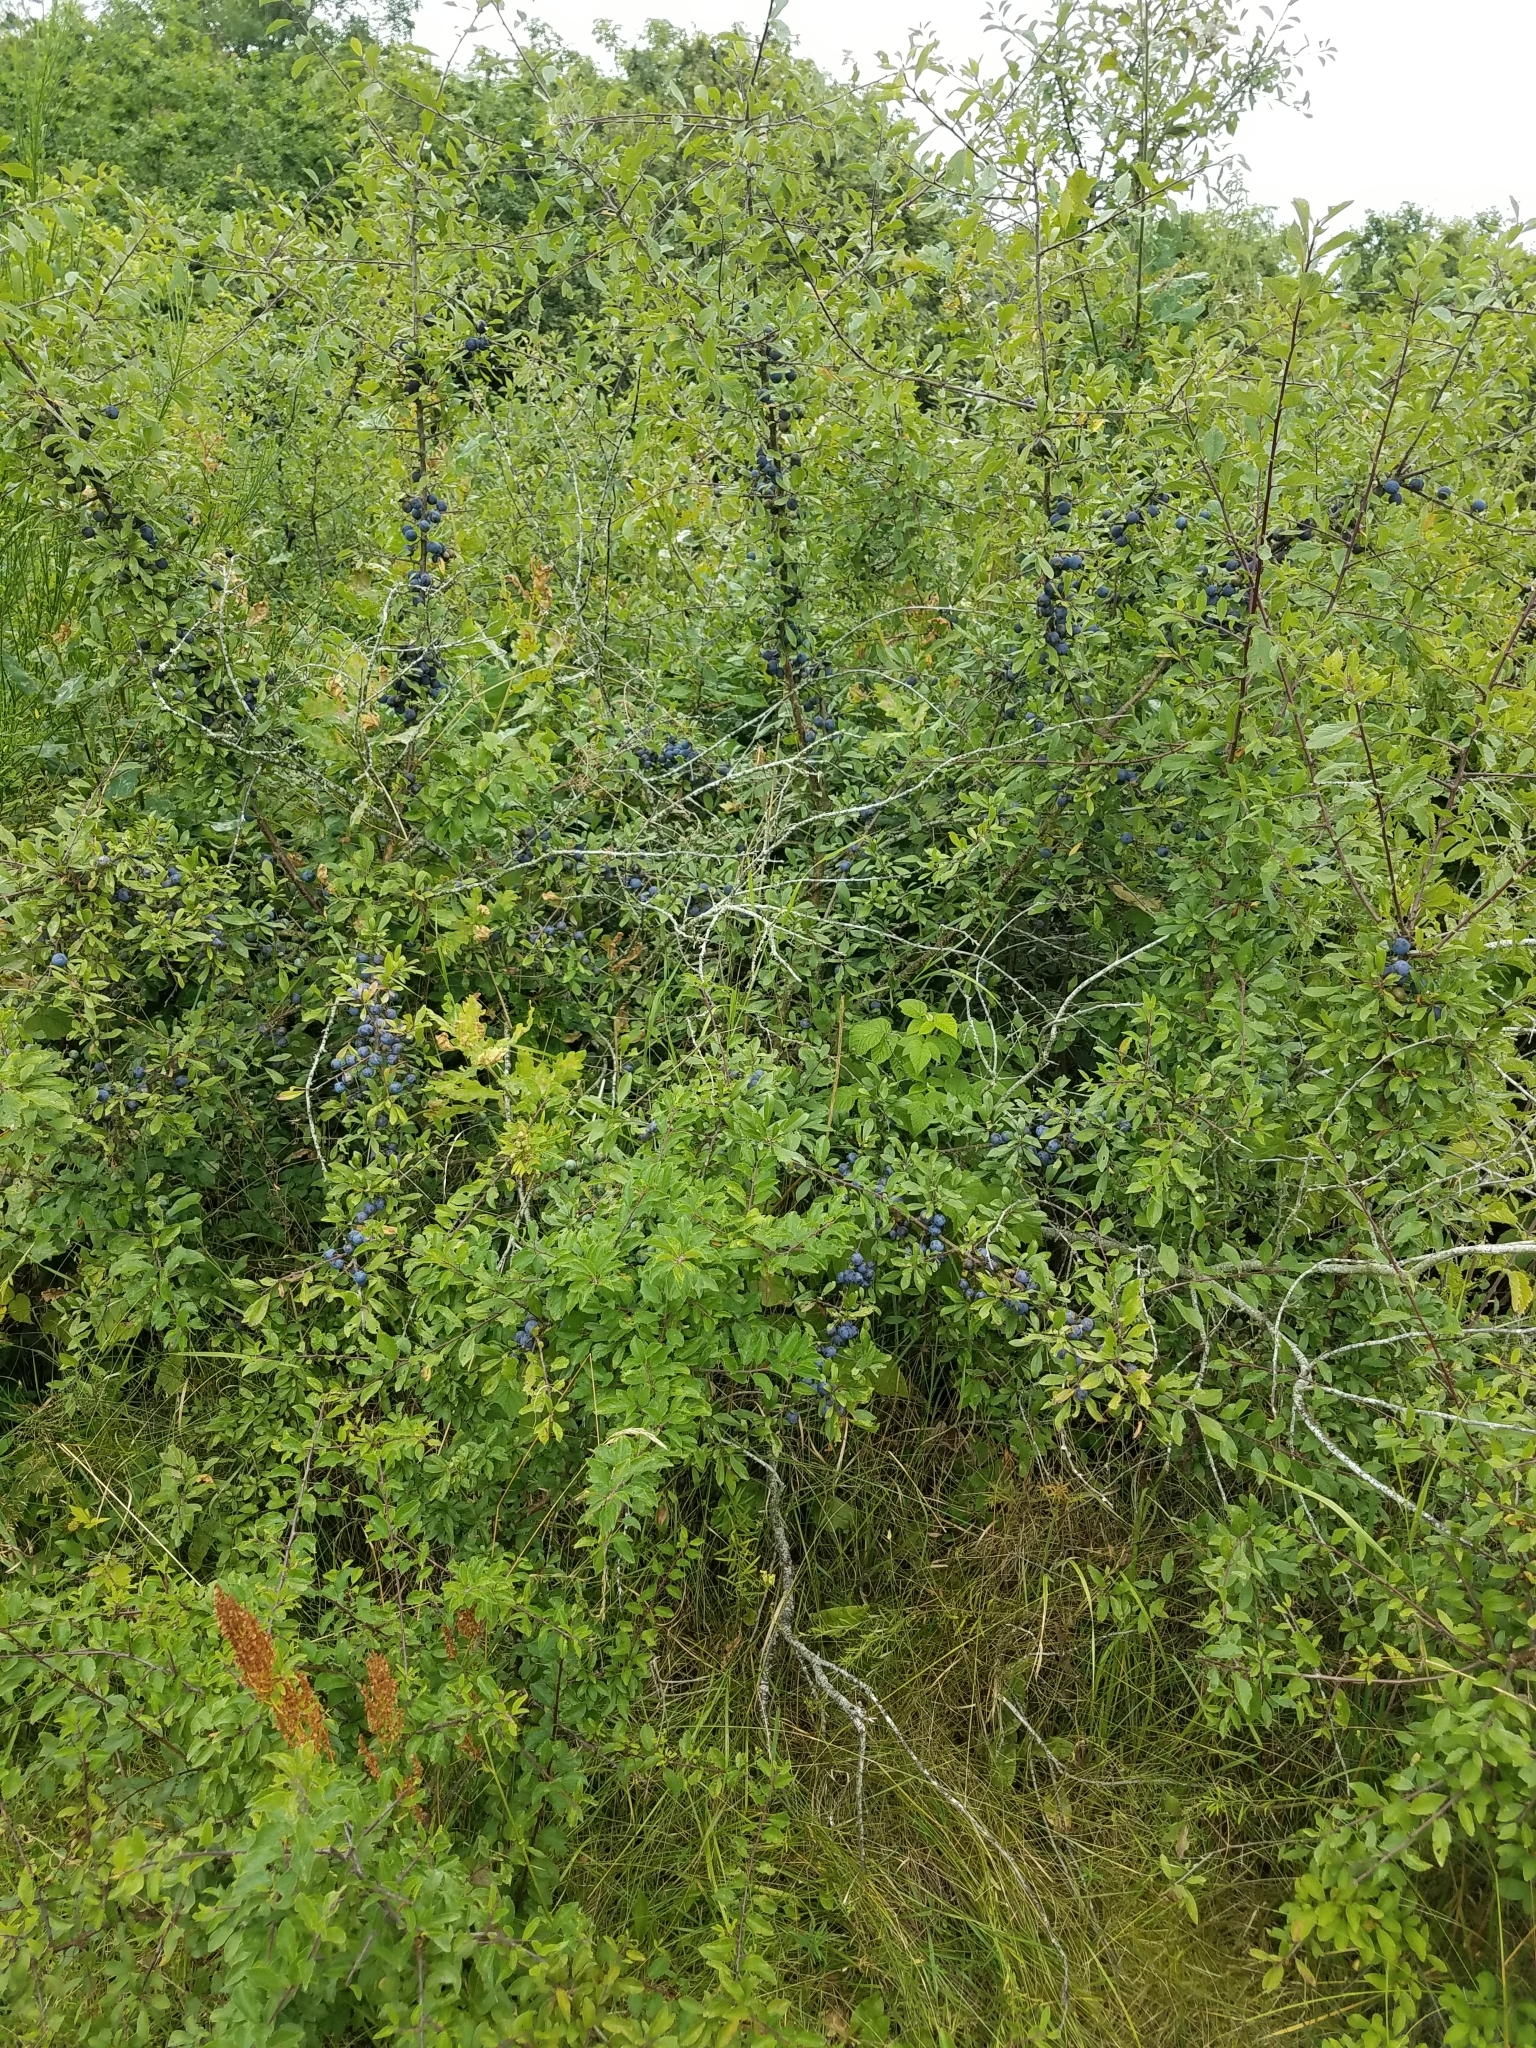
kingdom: Plantae
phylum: Tracheophyta
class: Magnoliopsida
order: Rosales
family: Rosaceae
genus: Prunus
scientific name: Prunus spinosa
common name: Blackthorn
